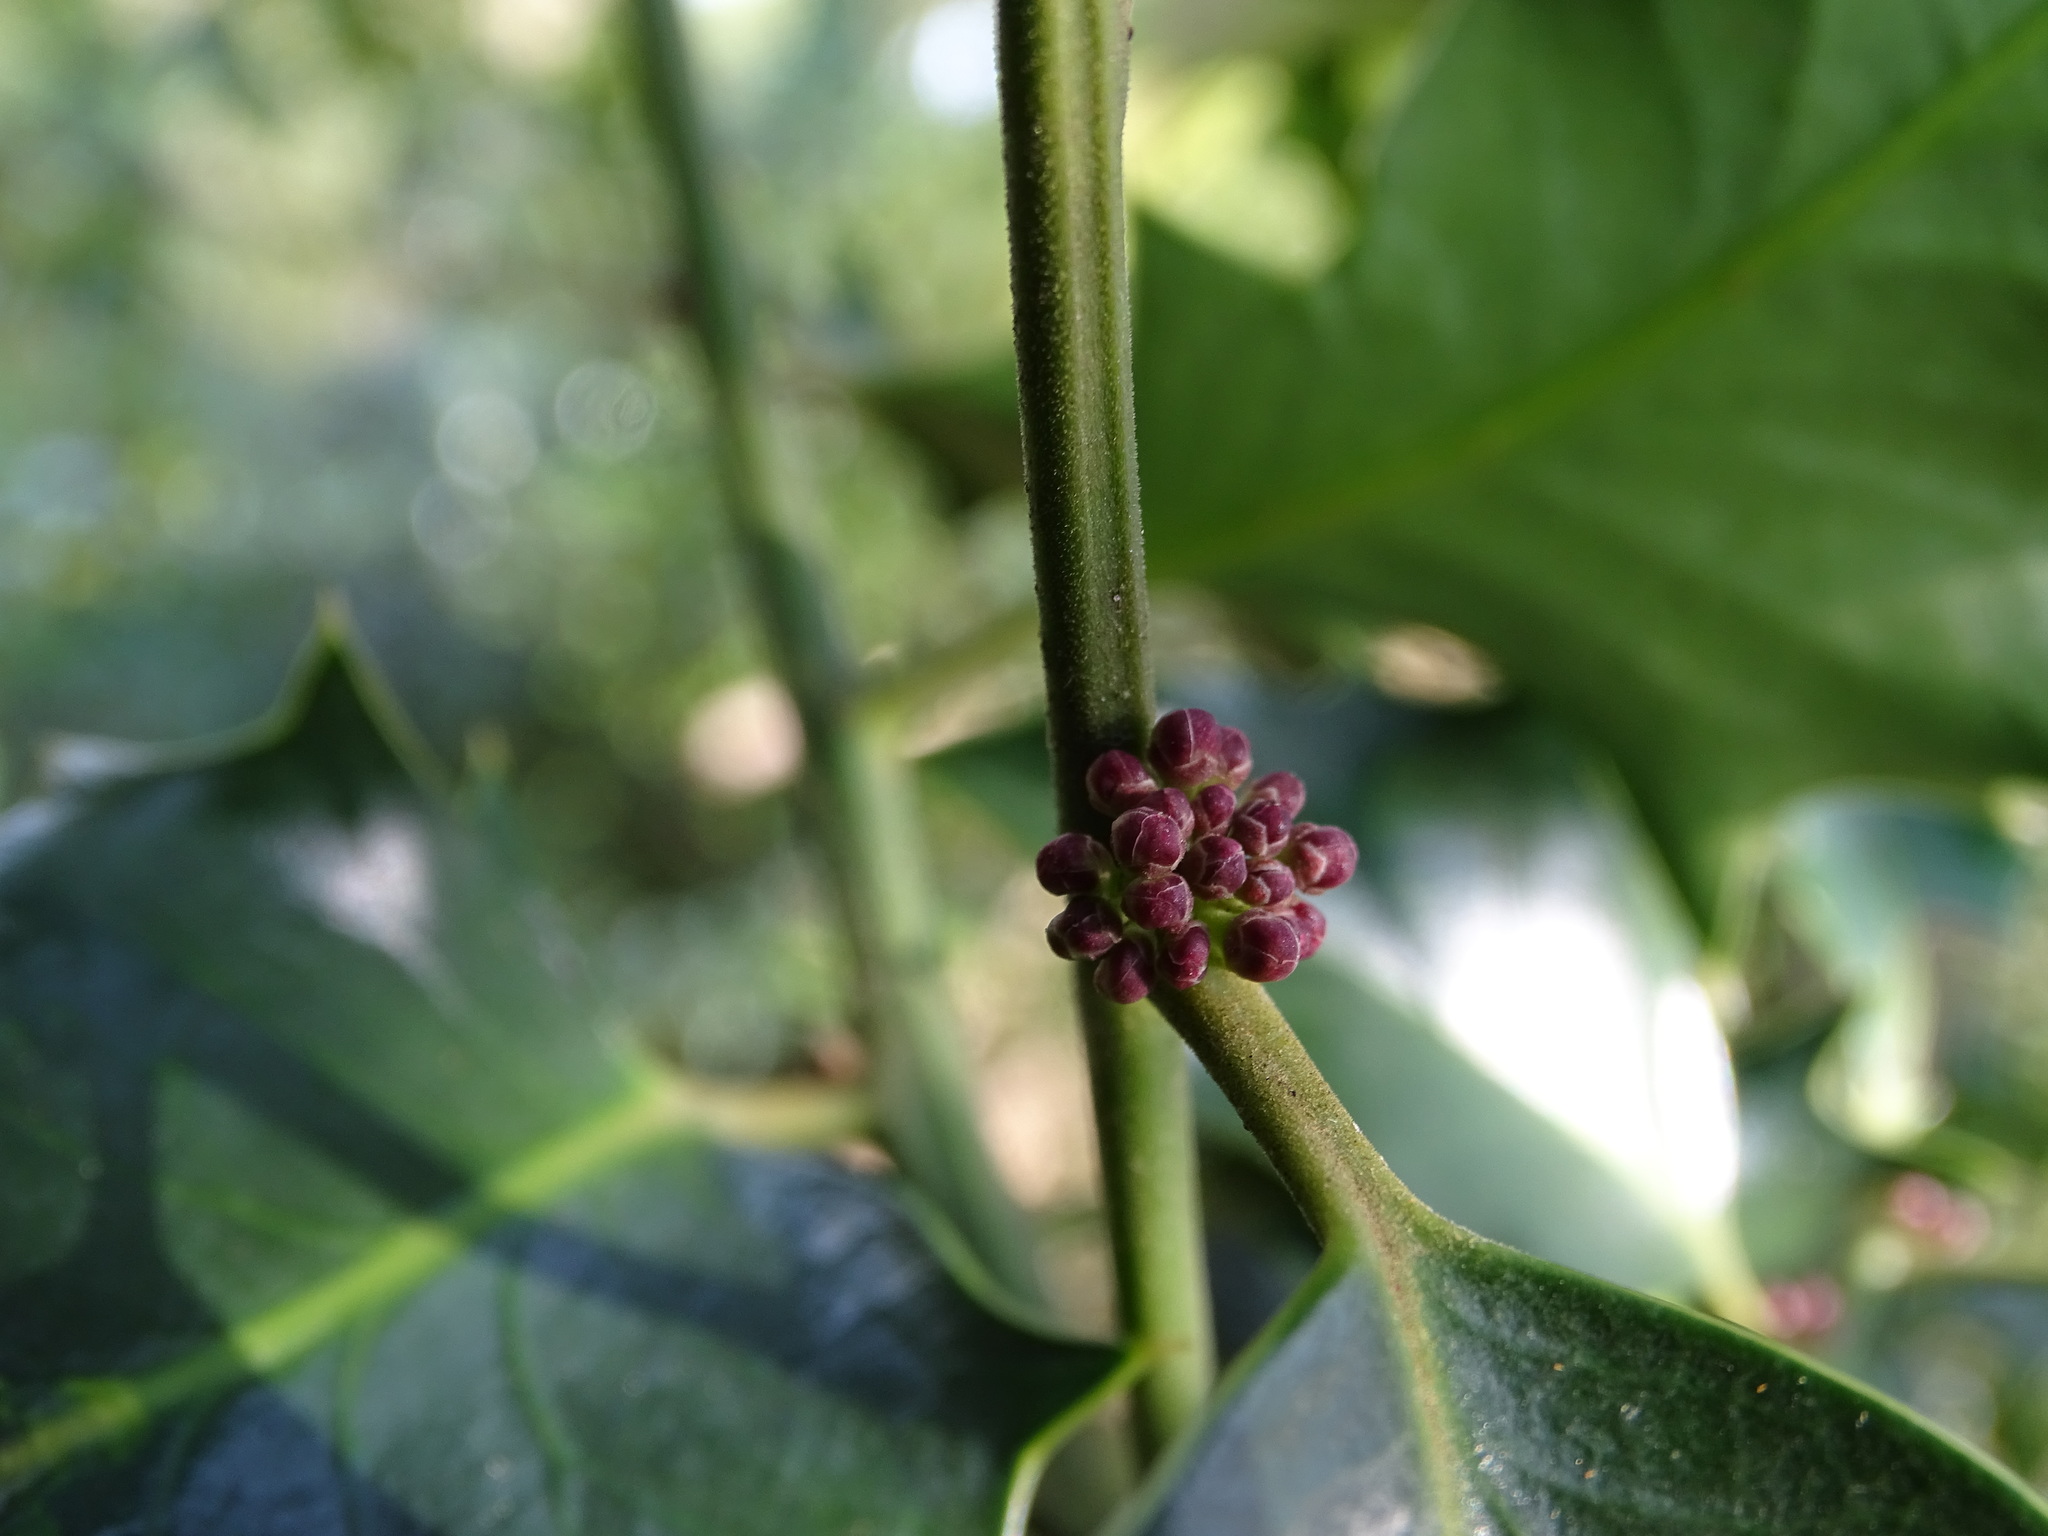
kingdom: Plantae
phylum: Tracheophyta
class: Magnoliopsida
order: Aquifoliales
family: Aquifoliaceae
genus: Ilex
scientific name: Ilex aquifolium
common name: English holly
